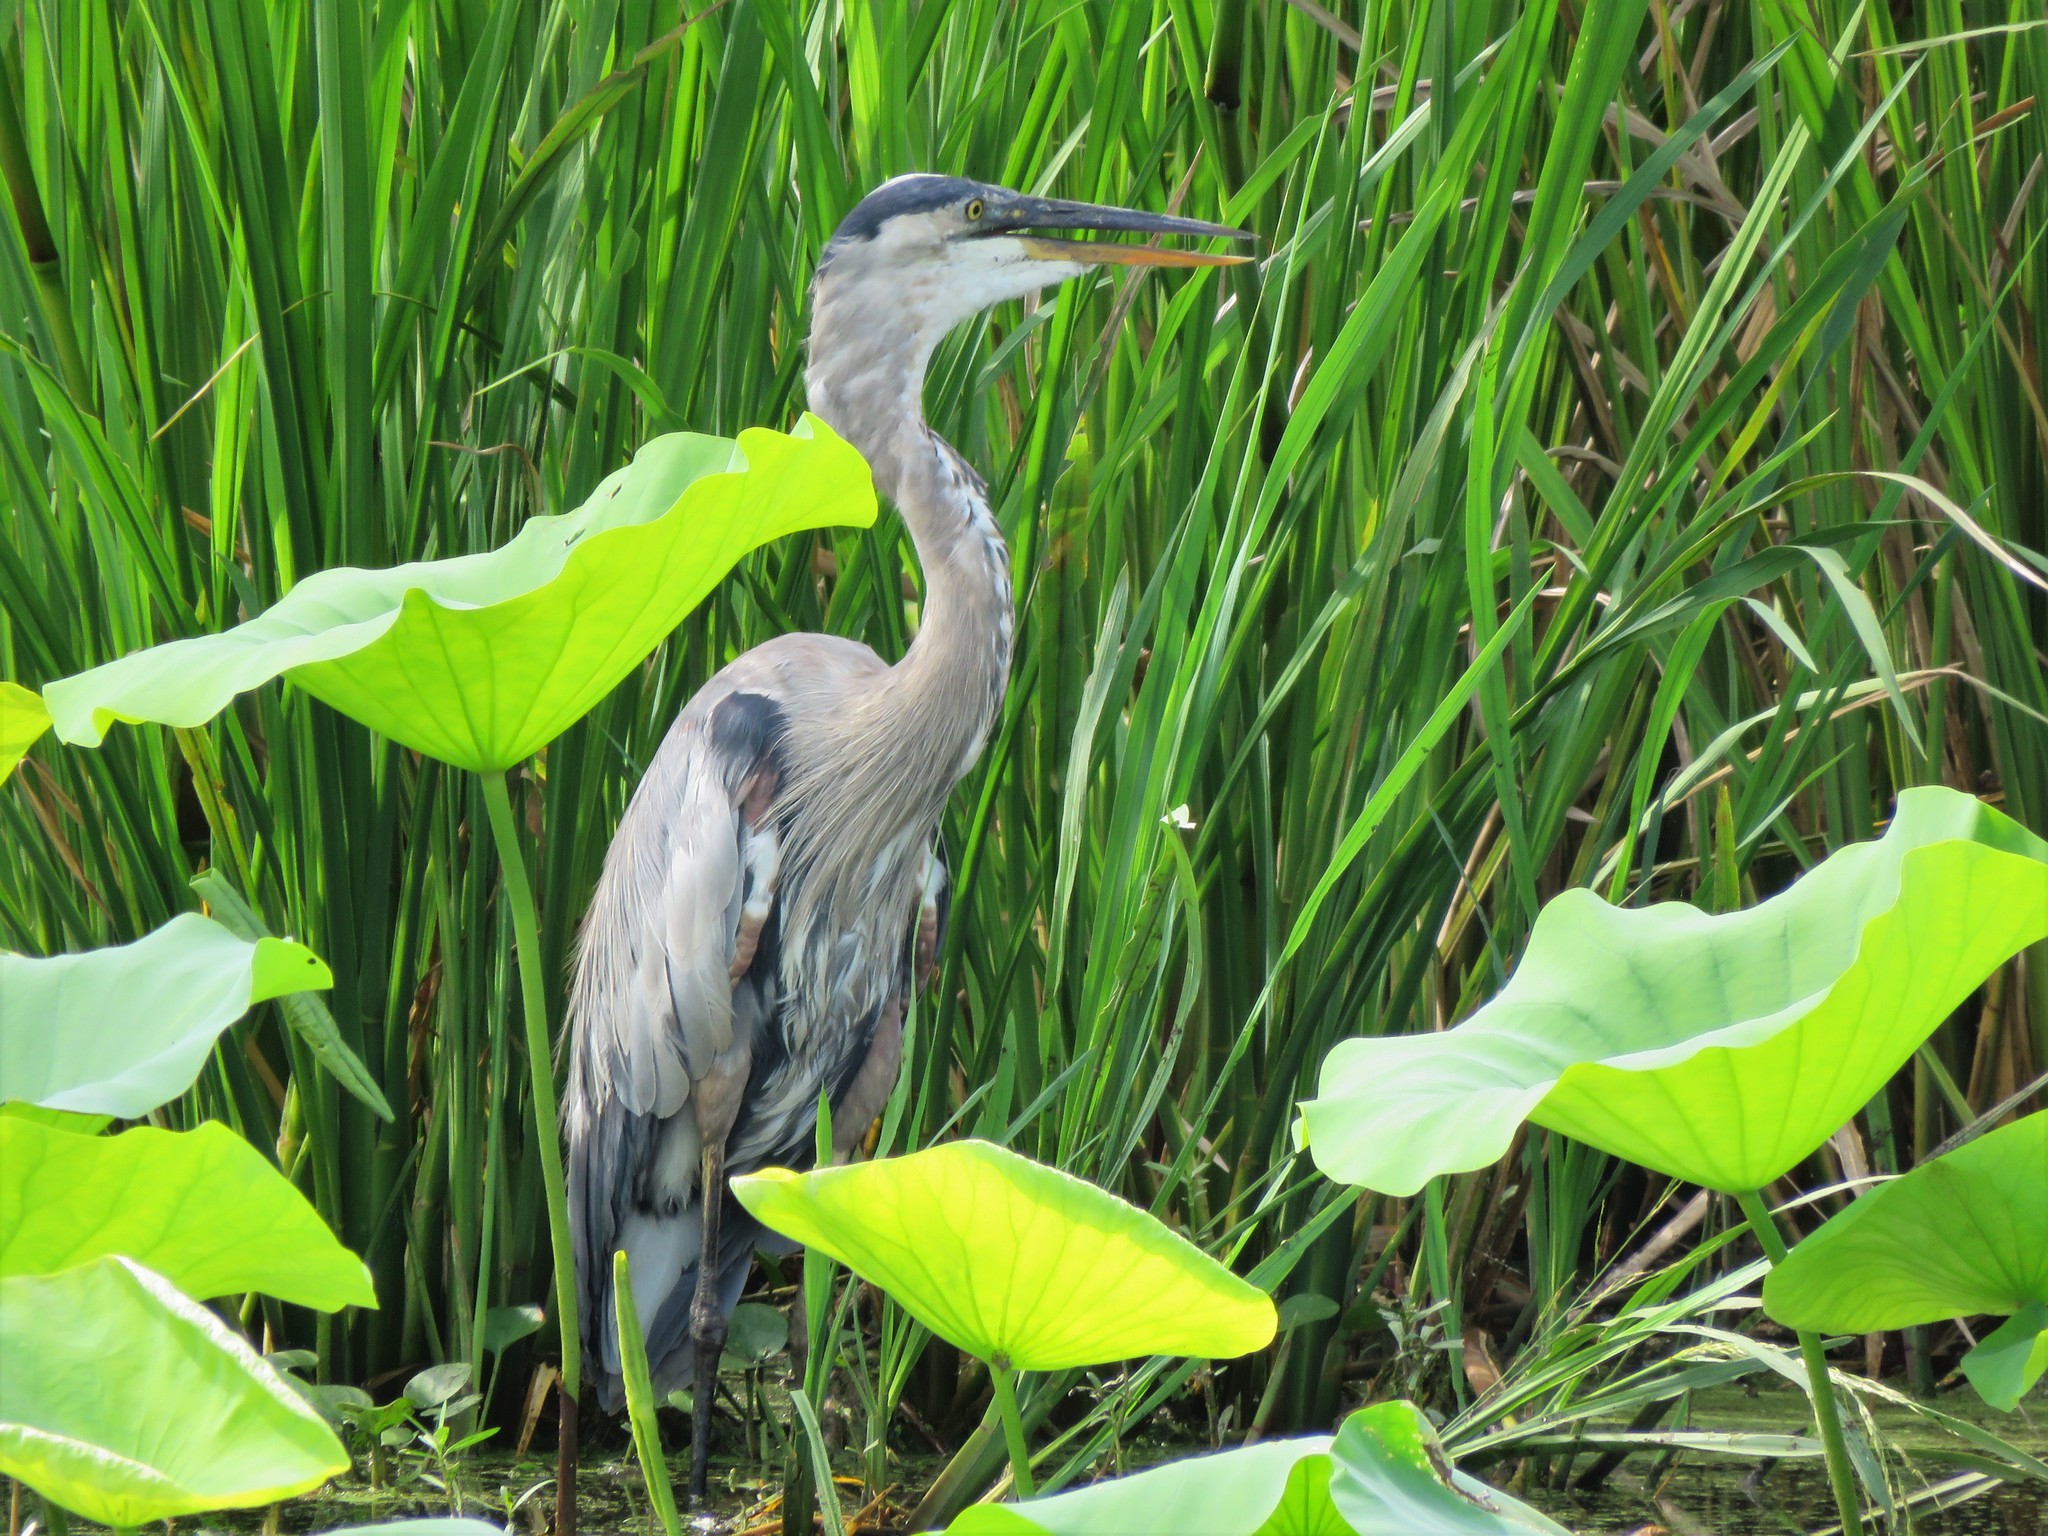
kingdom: Animalia
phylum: Chordata
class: Aves
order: Pelecaniformes
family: Ardeidae
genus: Ardea
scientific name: Ardea herodias
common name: Great blue heron
